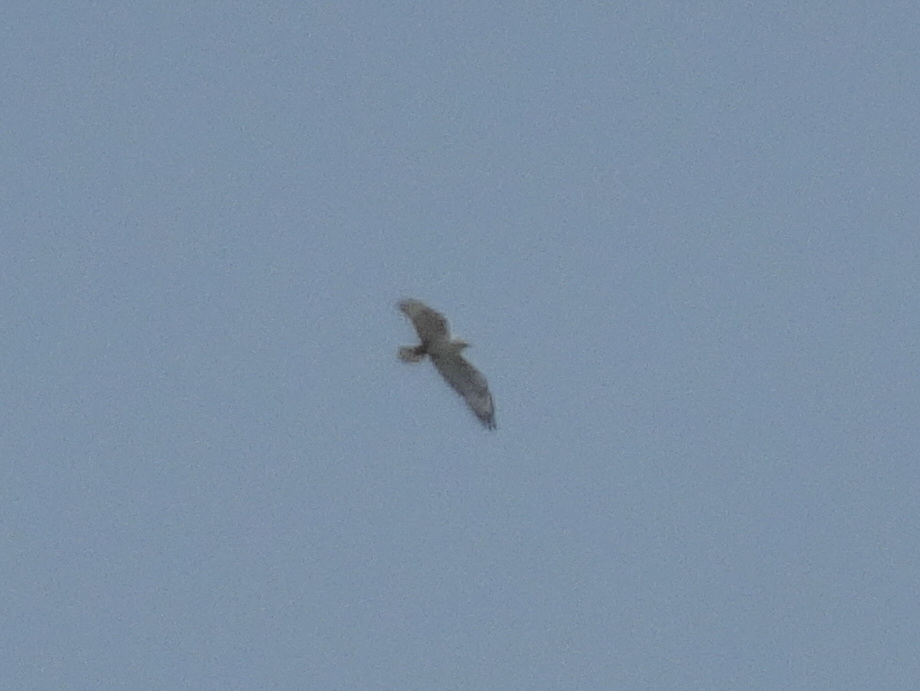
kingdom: Animalia
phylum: Chordata
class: Aves
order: Accipitriformes
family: Accipitridae
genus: Buteo
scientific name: Buteo regalis
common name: Ferruginous hawk
